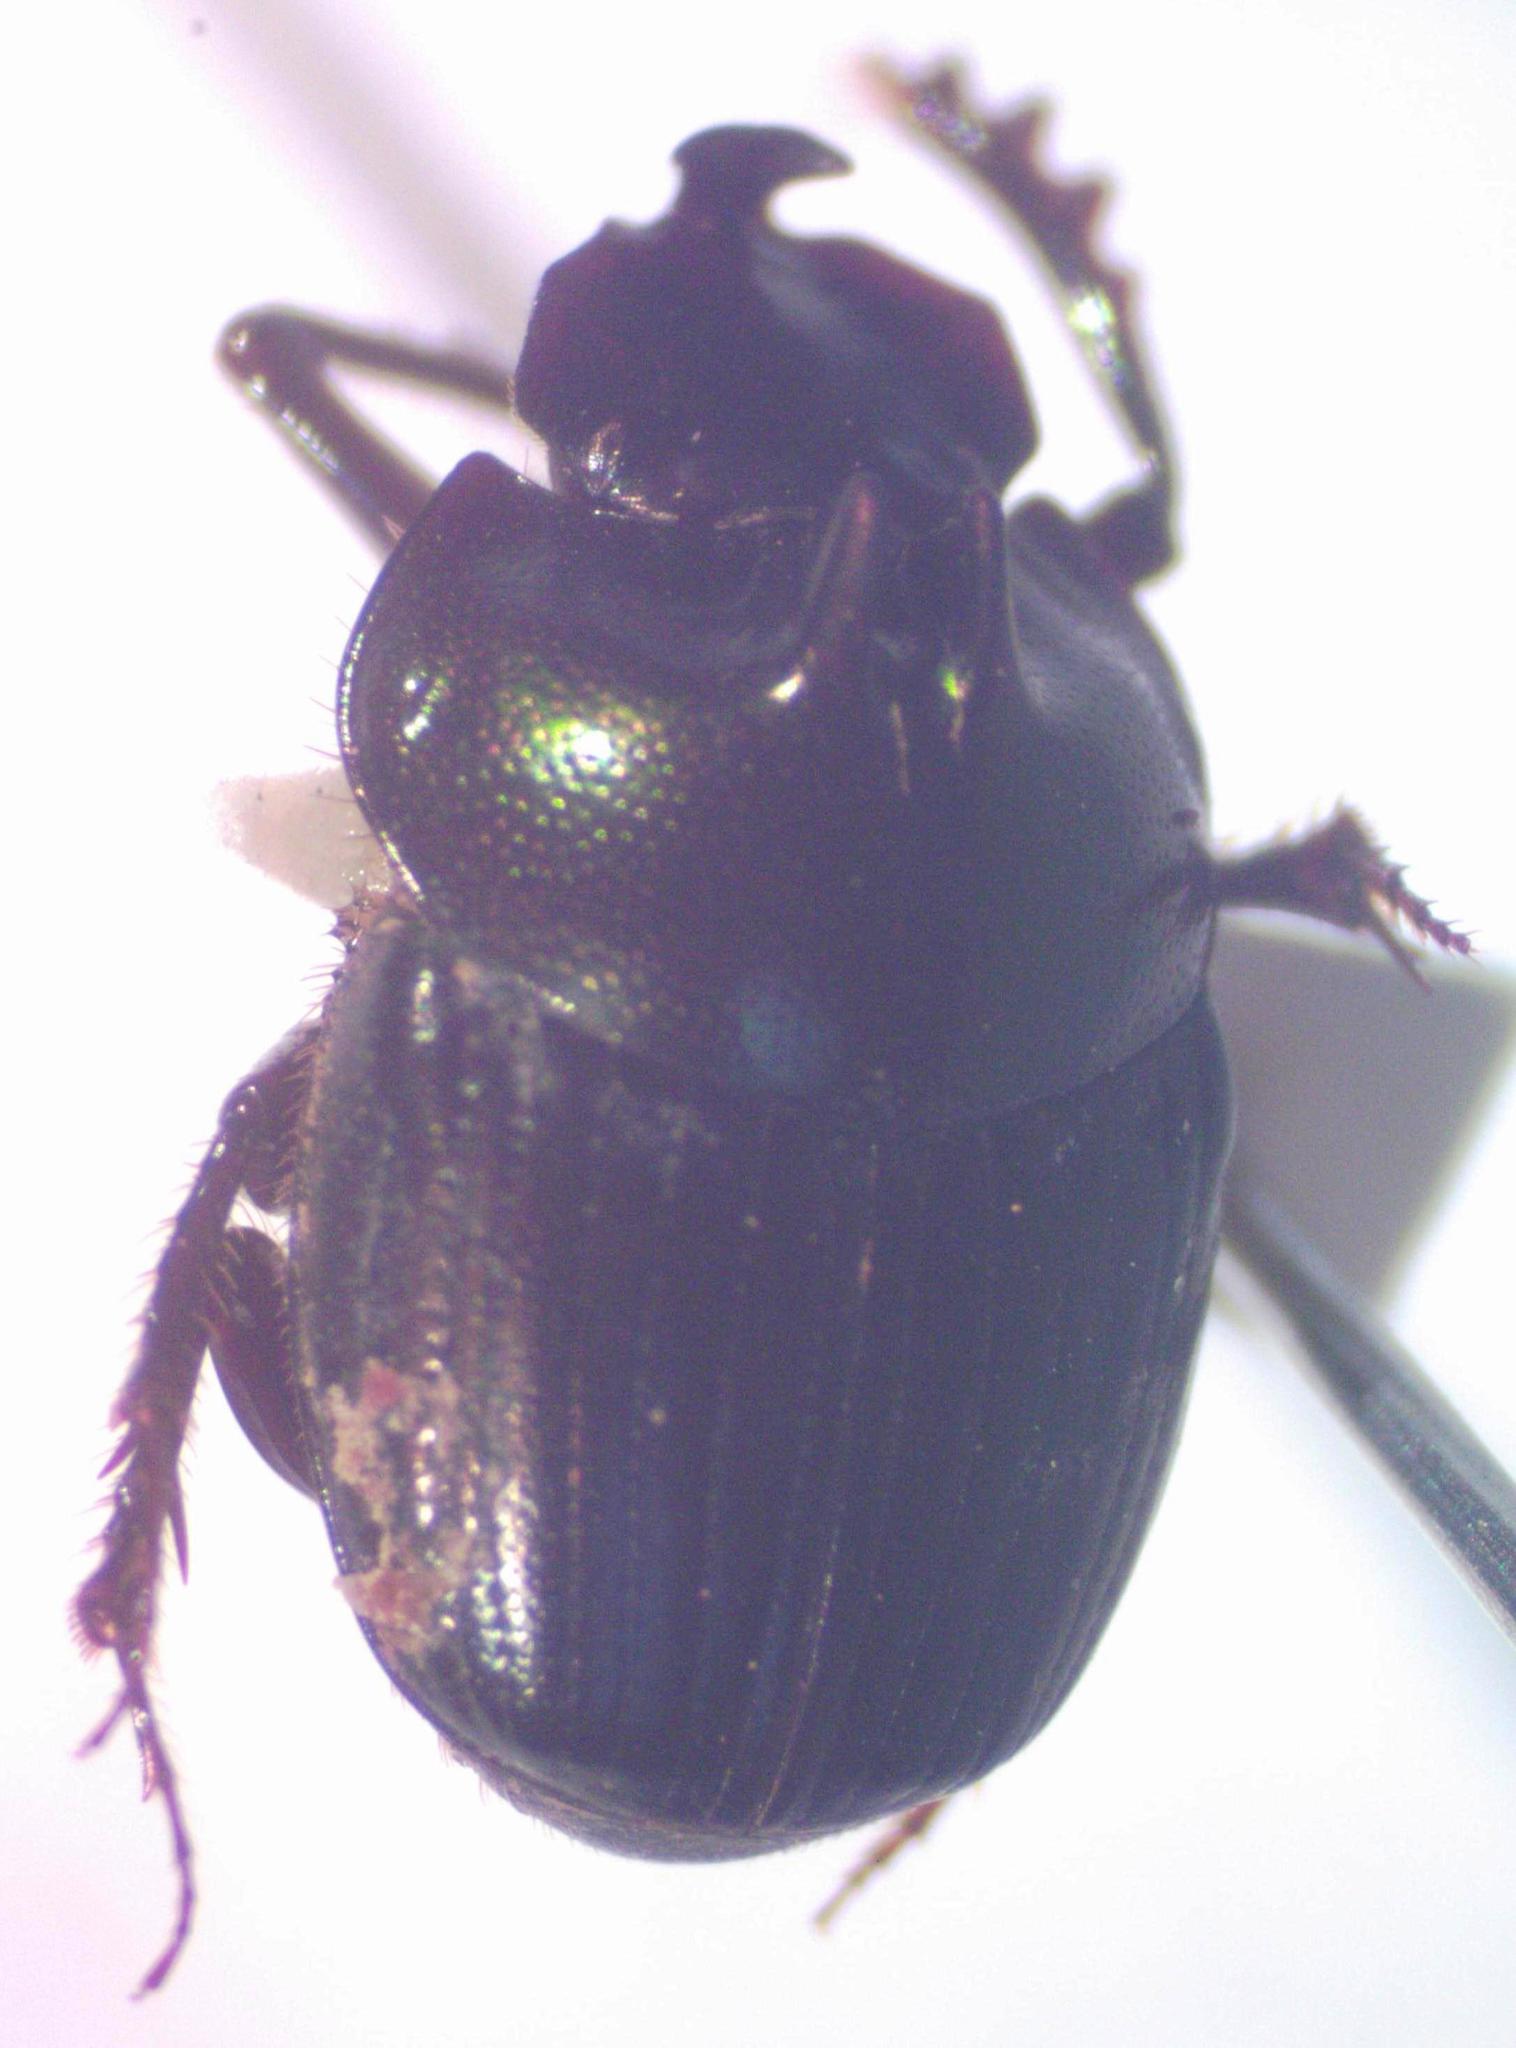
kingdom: Animalia
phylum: Arthropoda
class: Insecta
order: Coleoptera
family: Scarabaeidae
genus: Onthophagus
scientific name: Onthophagus praecellens
